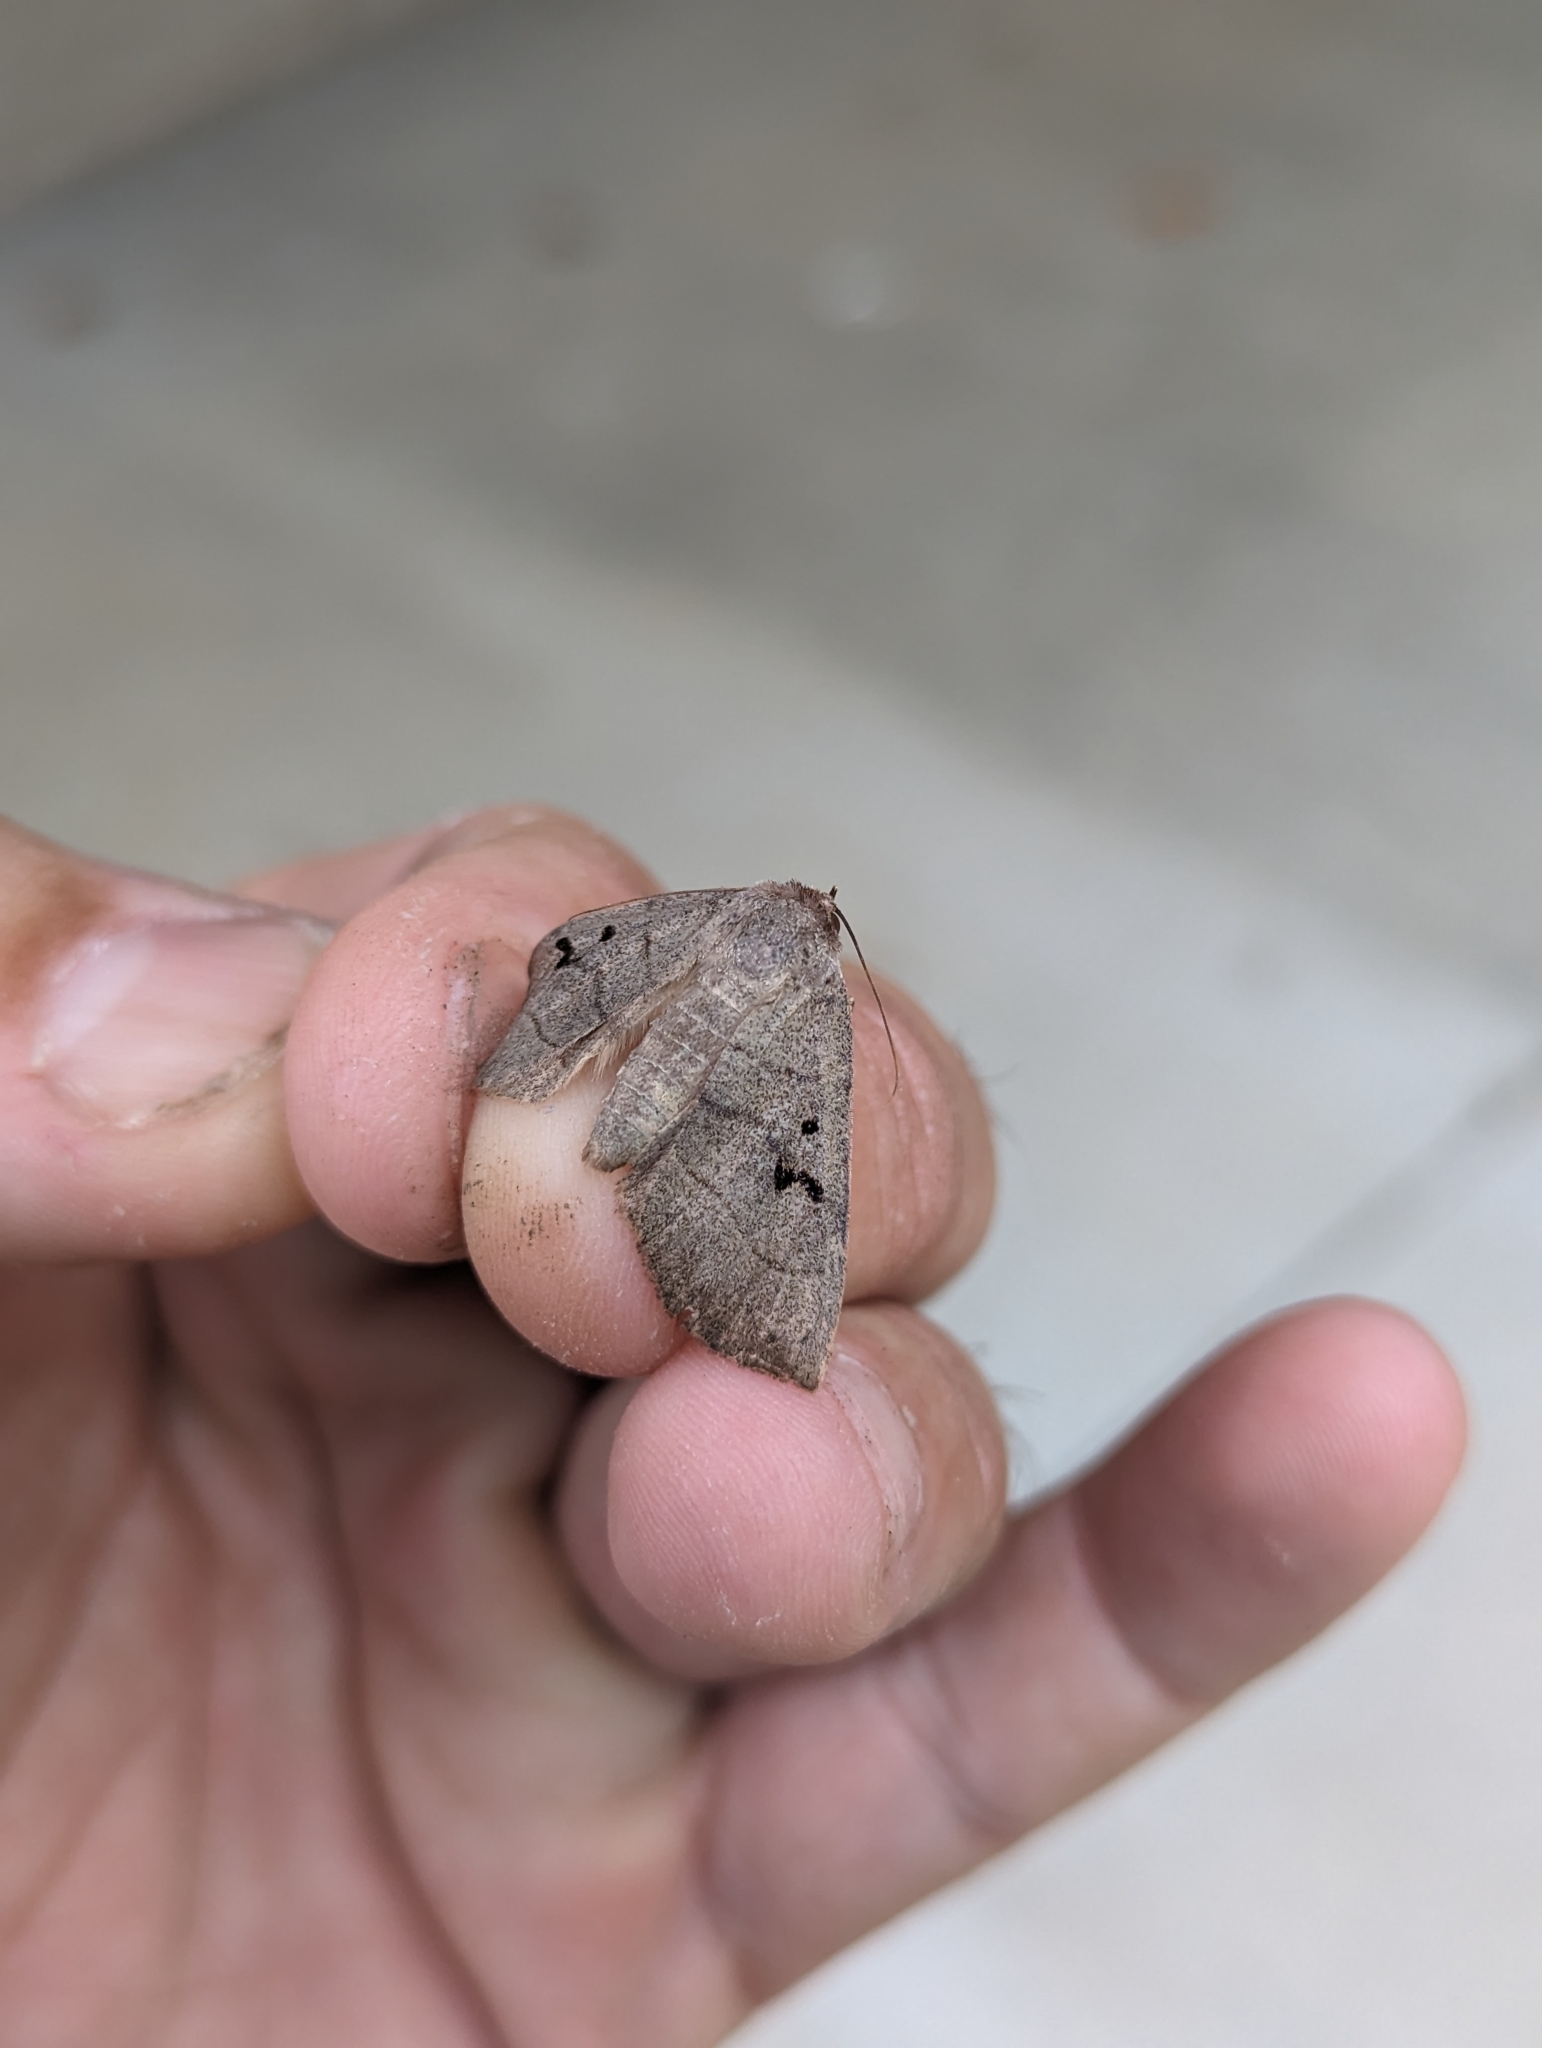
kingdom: Animalia
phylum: Arthropoda
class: Insecta
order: Lepidoptera
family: Erebidae
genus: Panopoda
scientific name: Panopoda carneicosta
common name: Brown panopoda moth
